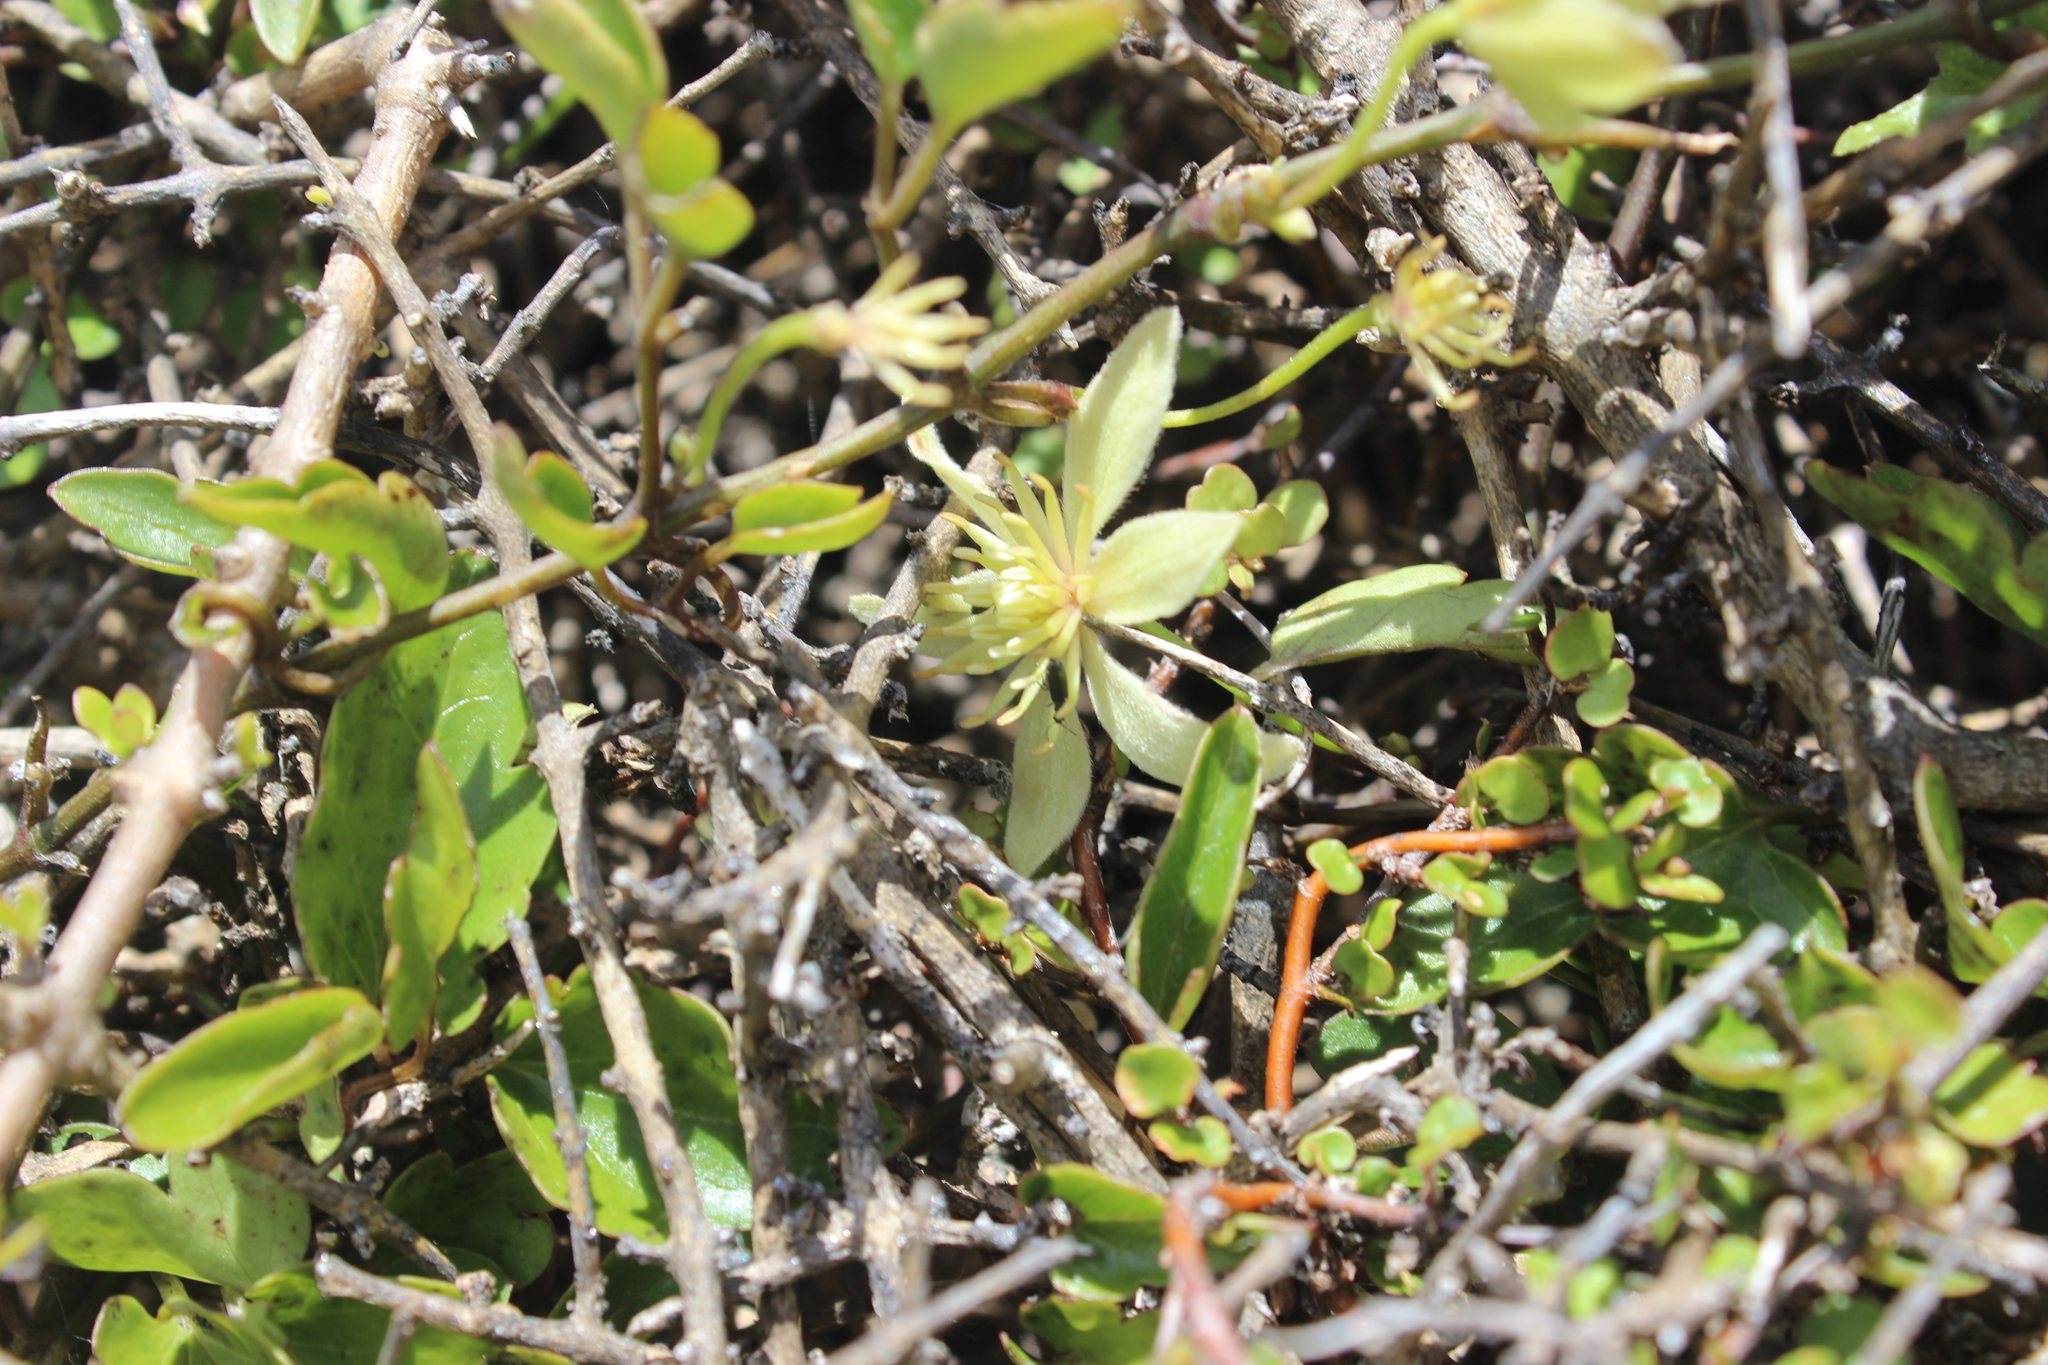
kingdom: Plantae
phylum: Tracheophyta
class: Magnoliopsida
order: Ranunculales
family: Ranunculaceae
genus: Clematis
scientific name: Clematis forsteri
